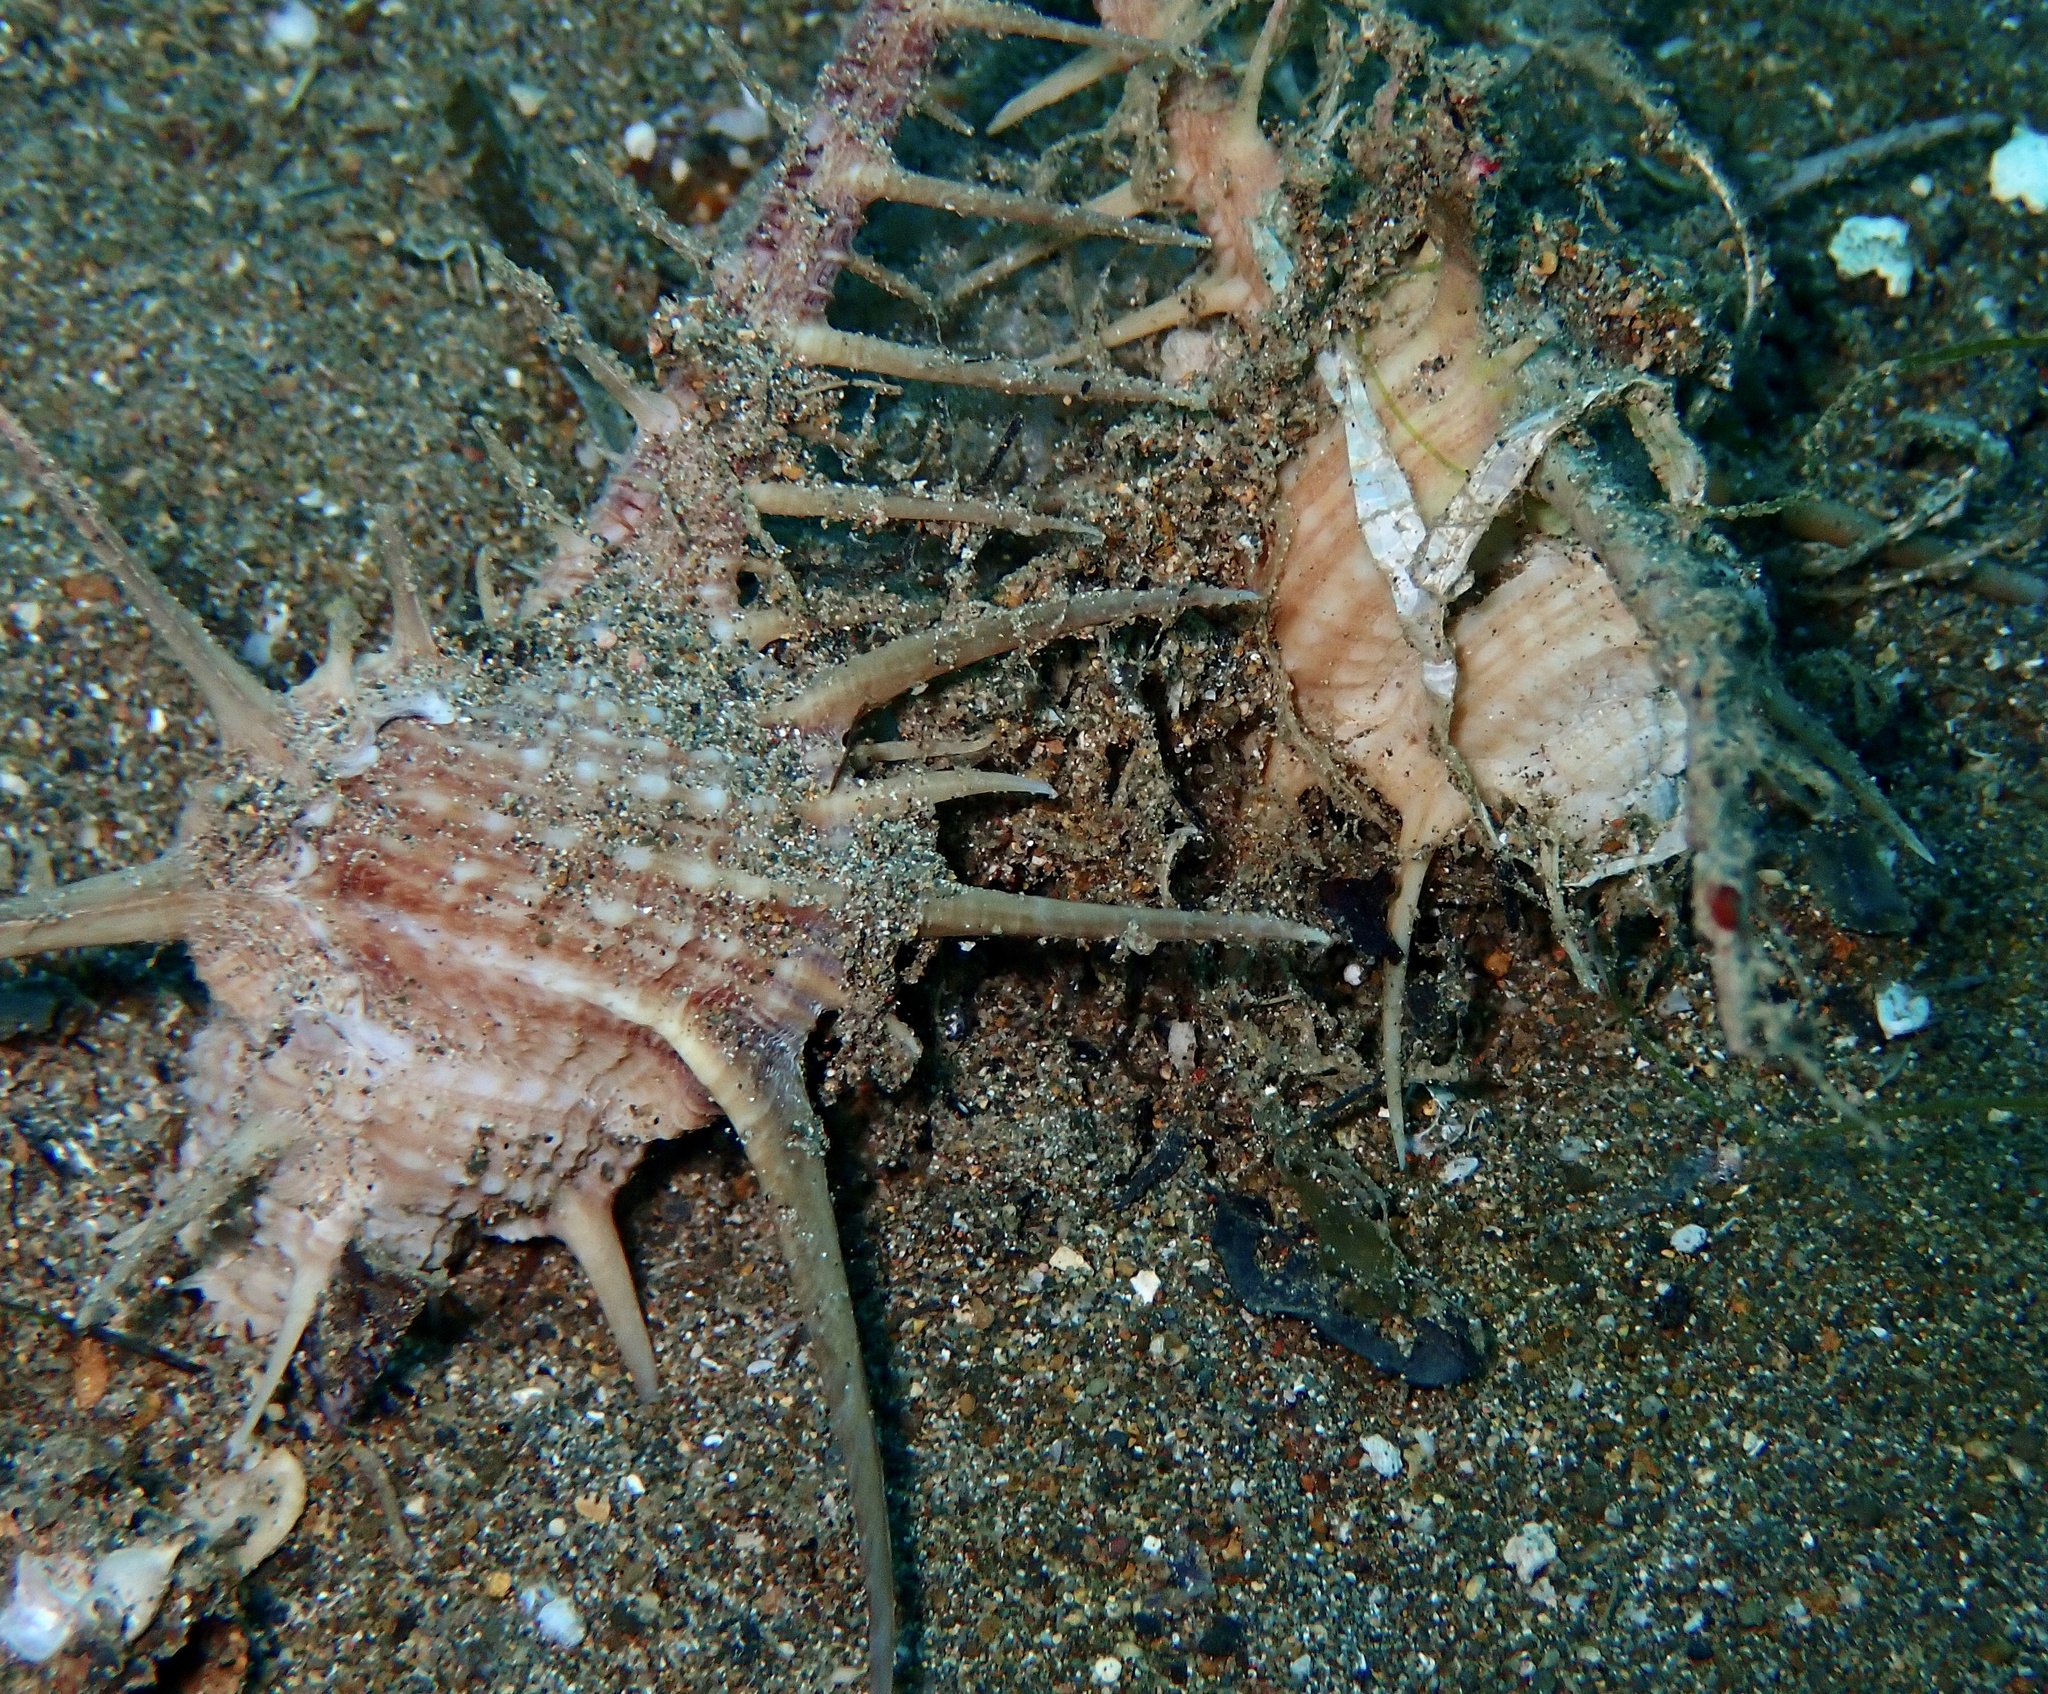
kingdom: Animalia
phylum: Mollusca
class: Gastropoda
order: Neogastropoda
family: Muricidae
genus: Murex
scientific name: Murex tenuirostrum
